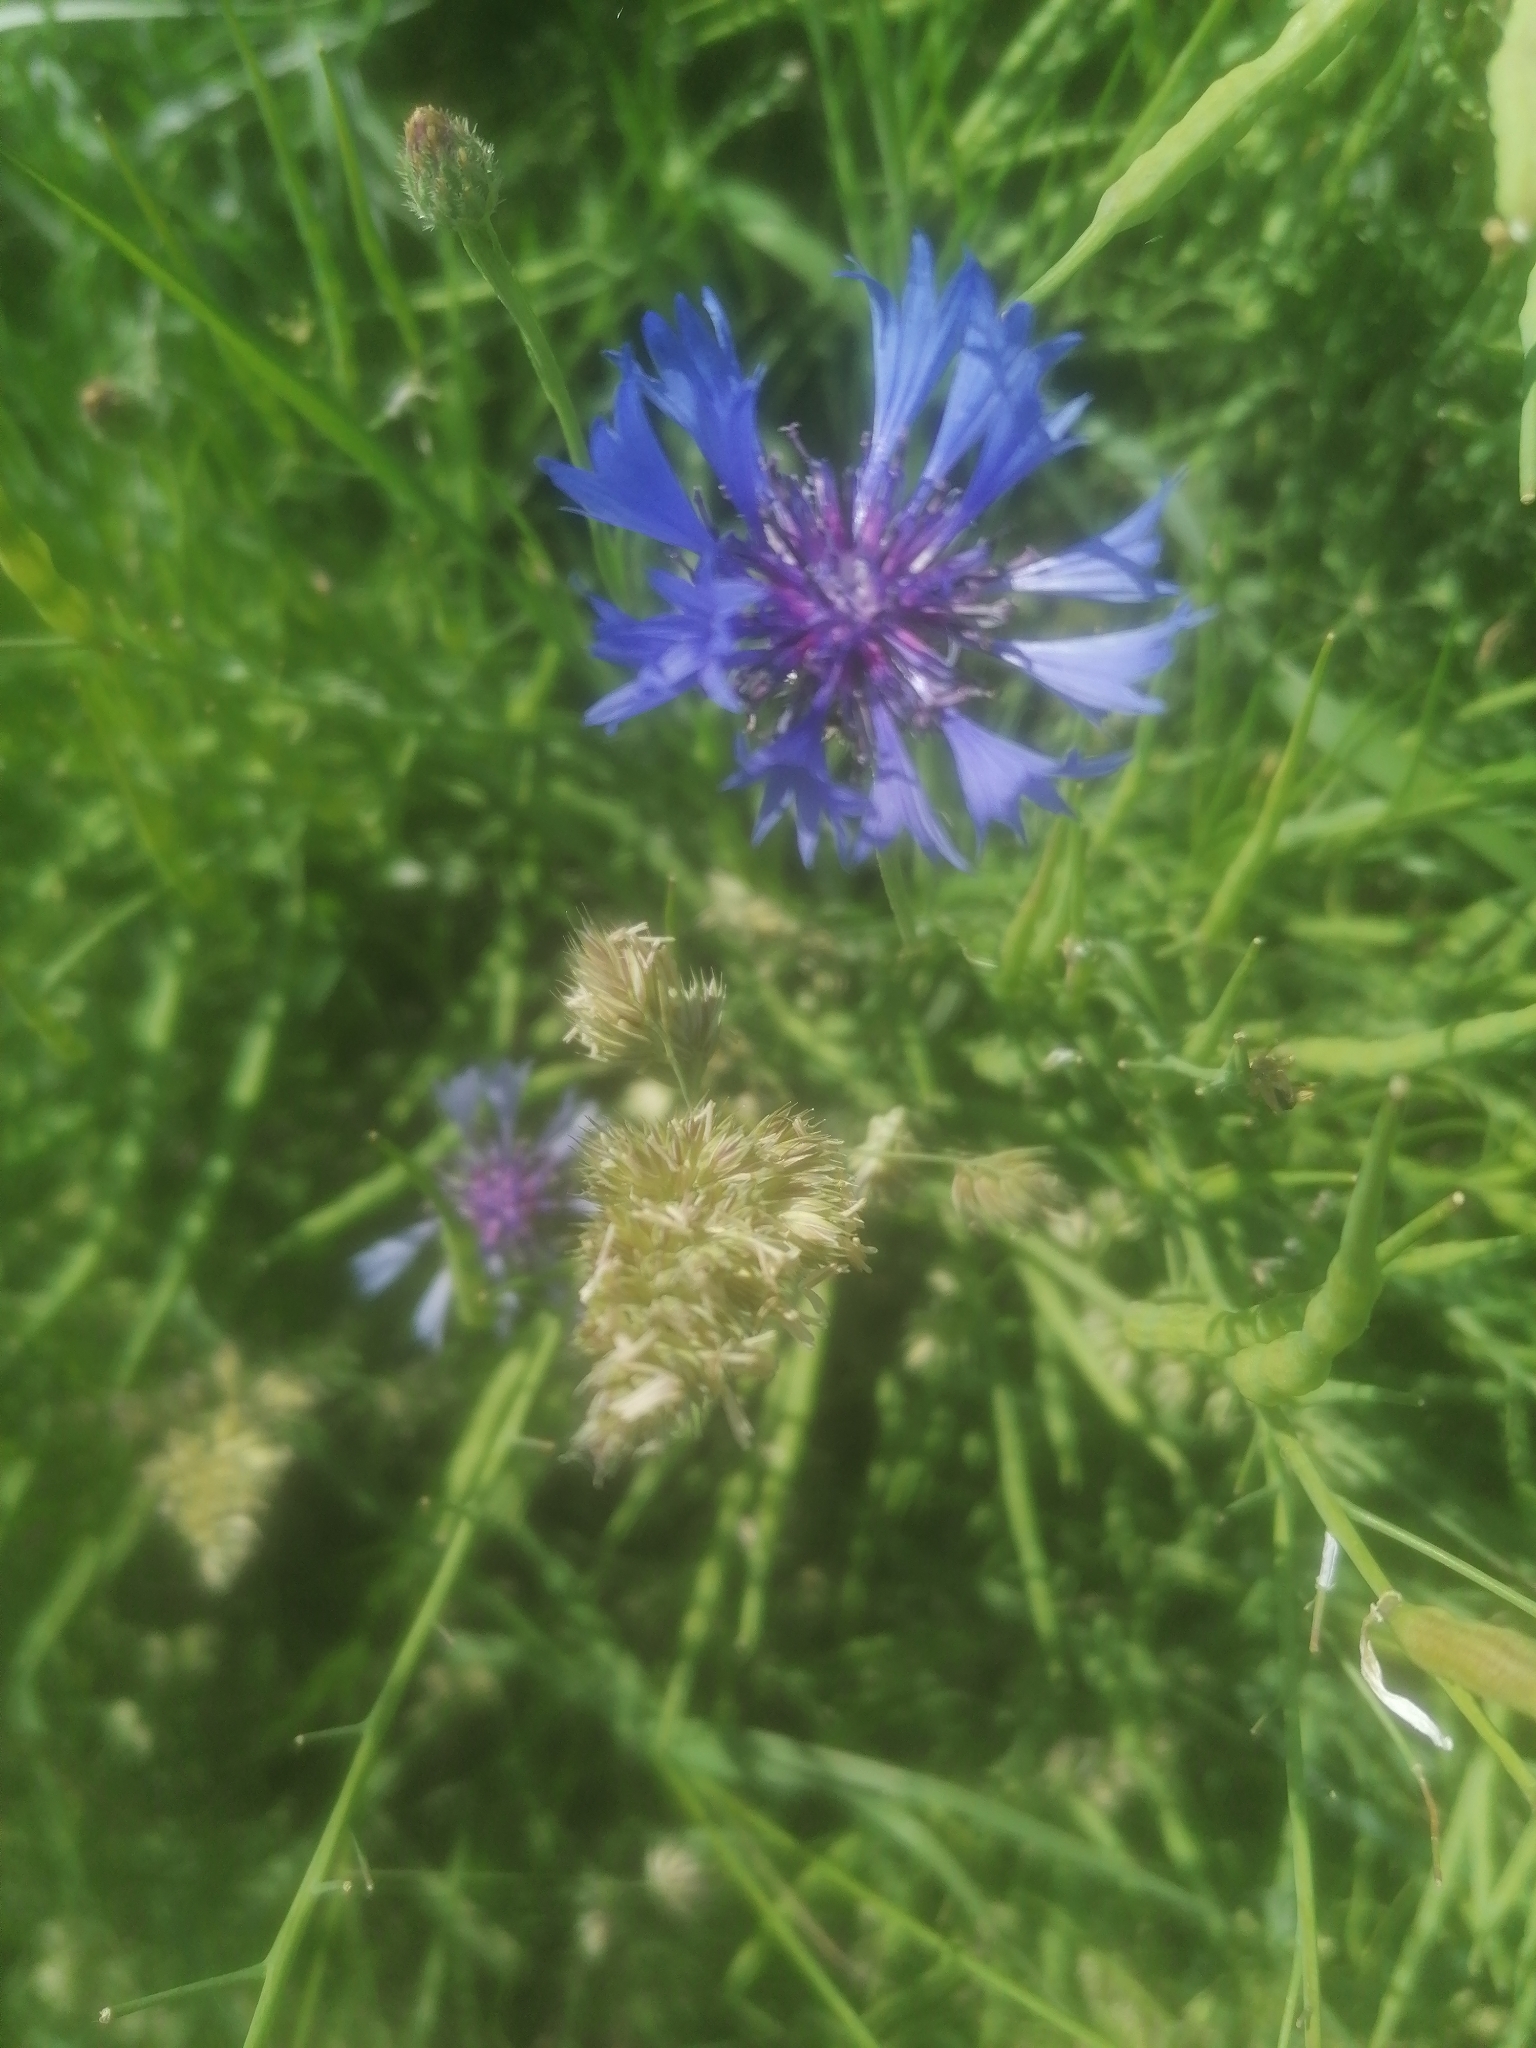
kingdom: Plantae
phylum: Tracheophyta
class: Magnoliopsida
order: Asterales
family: Asteraceae
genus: Centaurea
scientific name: Centaurea cyanus
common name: Cornflower
